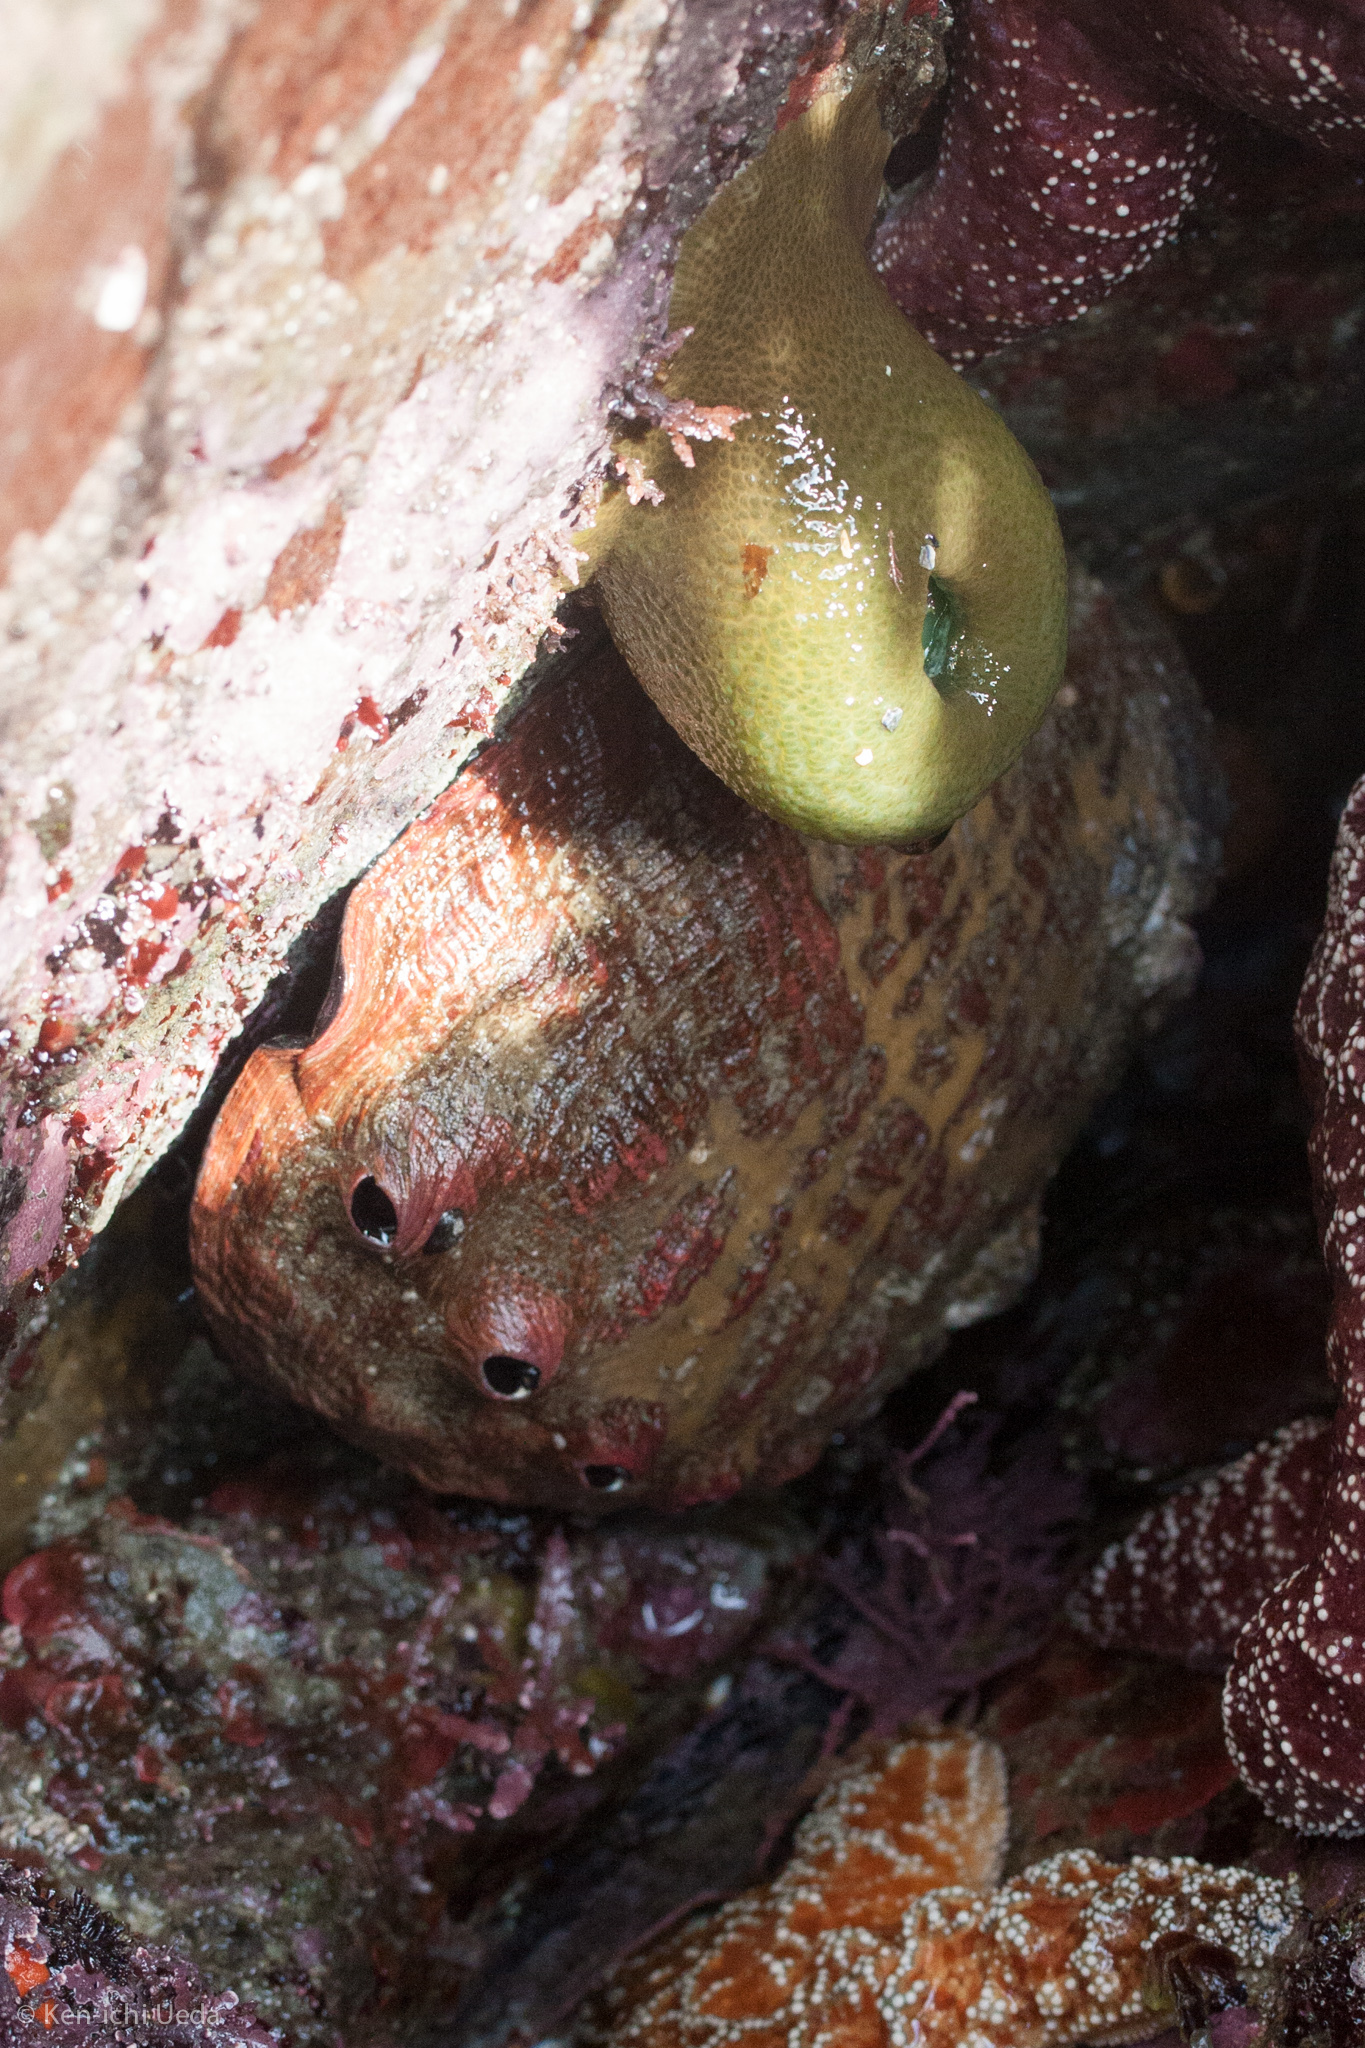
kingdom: Animalia
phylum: Mollusca
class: Gastropoda
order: Lepetellida
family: Haliotidae
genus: Haliotis
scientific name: Haliotis rufescens
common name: Red abalone
